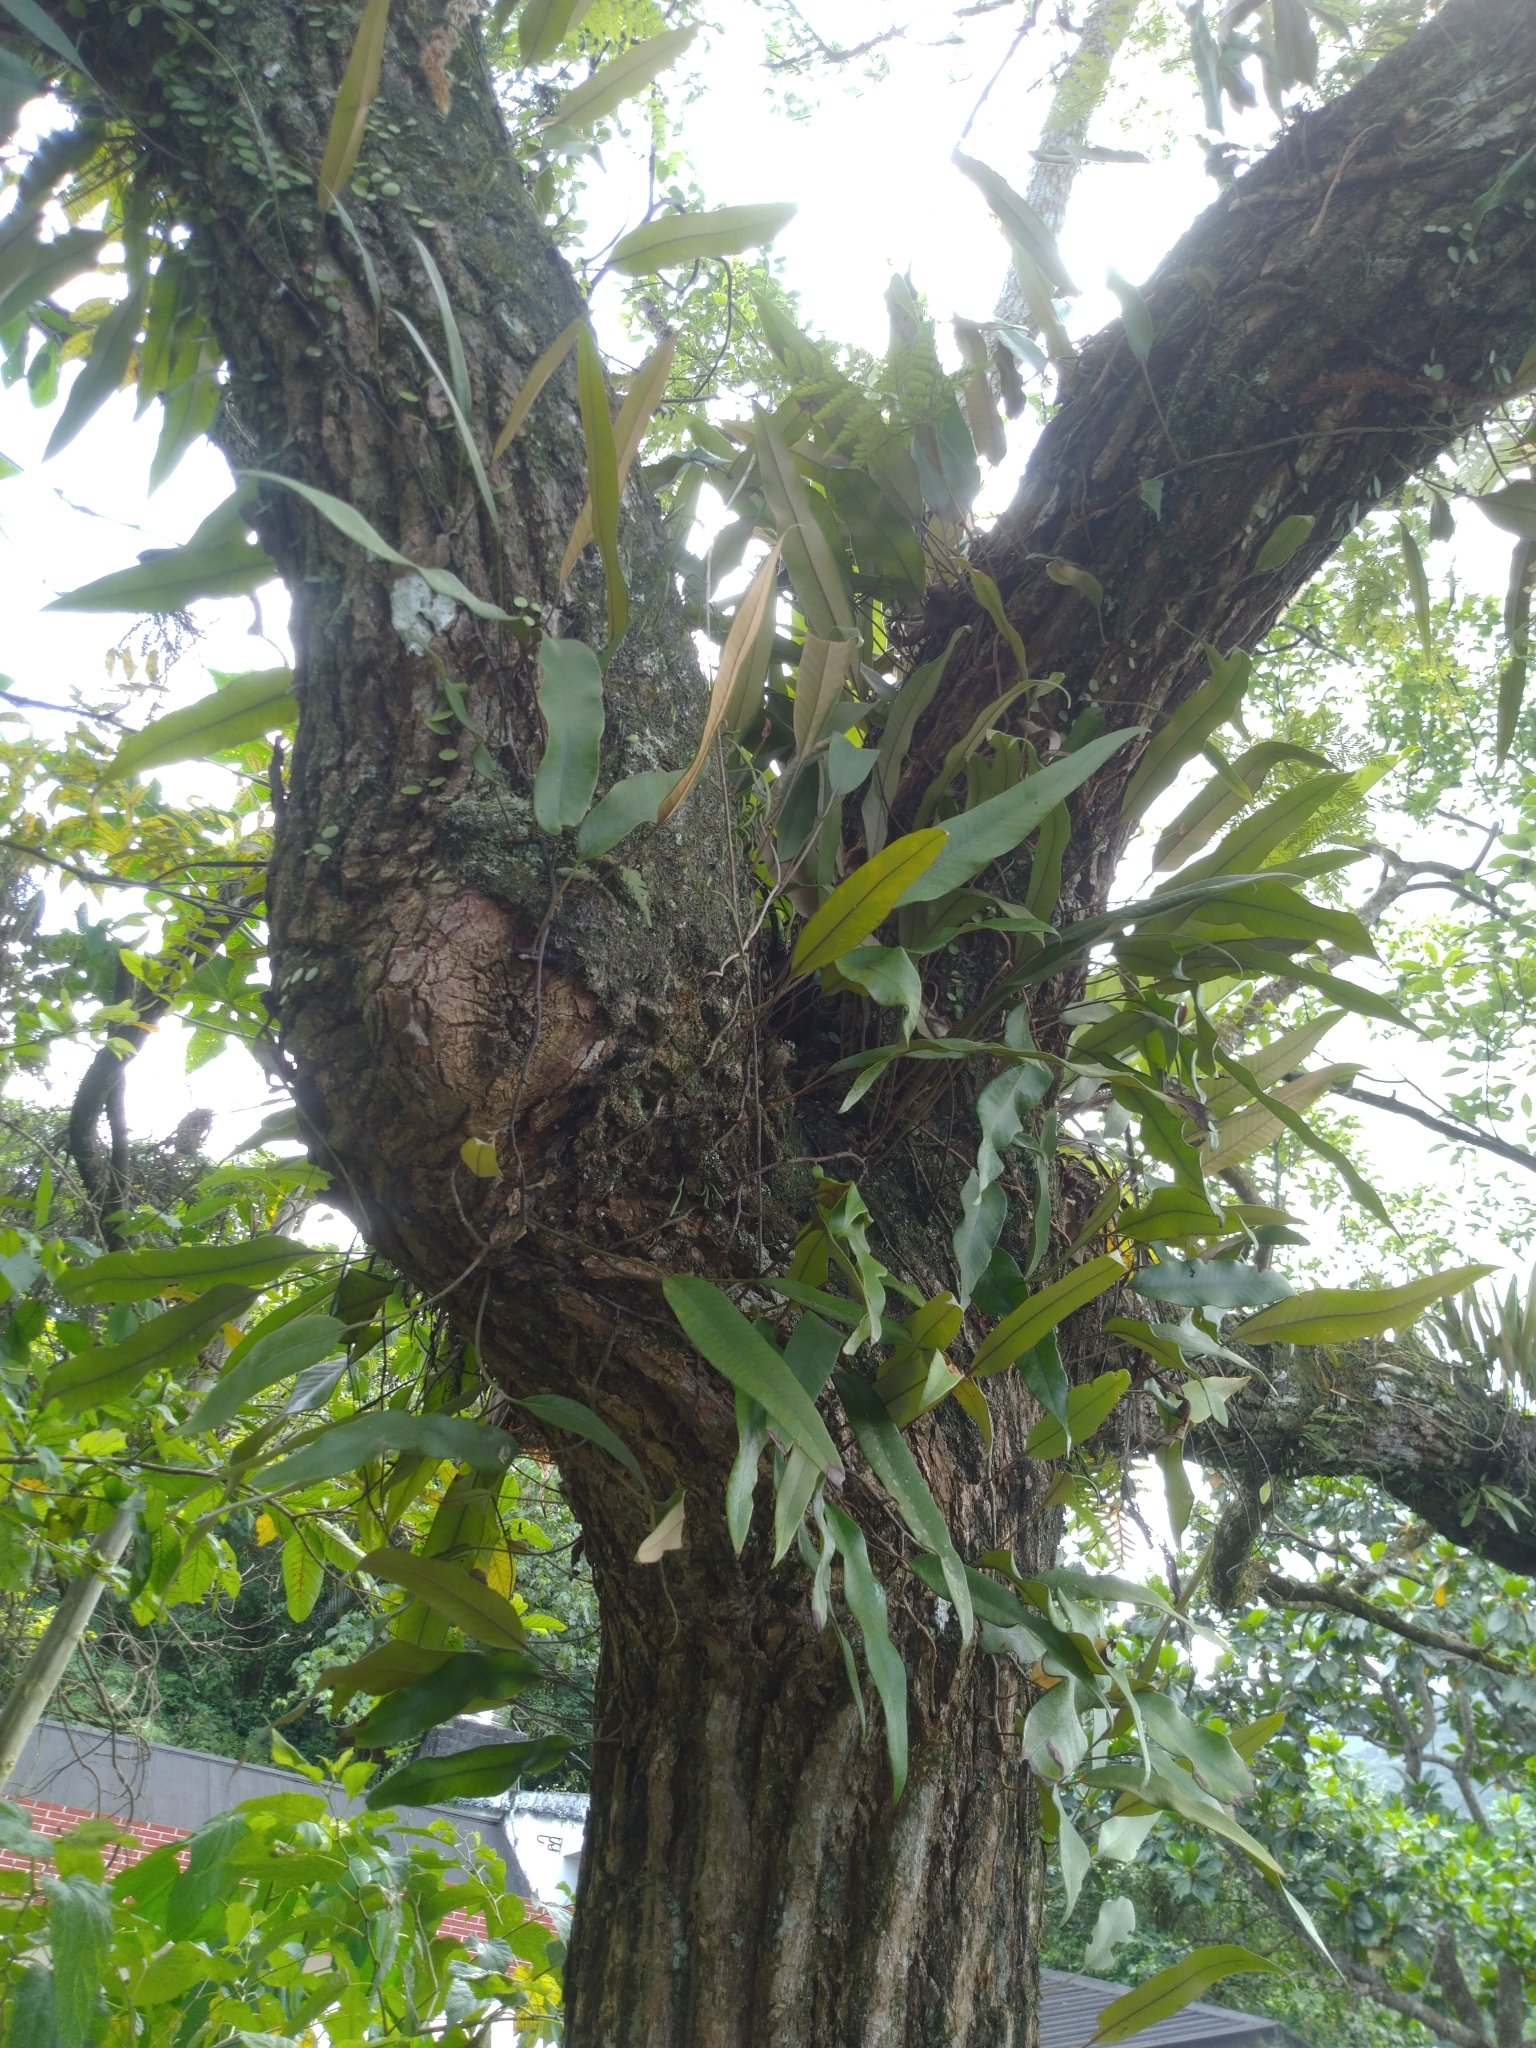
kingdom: Plantae
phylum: Tracheophyta
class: Polypodiopsida
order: Polypodiales
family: Polypodiaceae
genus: Pyrrosia
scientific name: Pyrrosia lingua
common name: Felt fern
